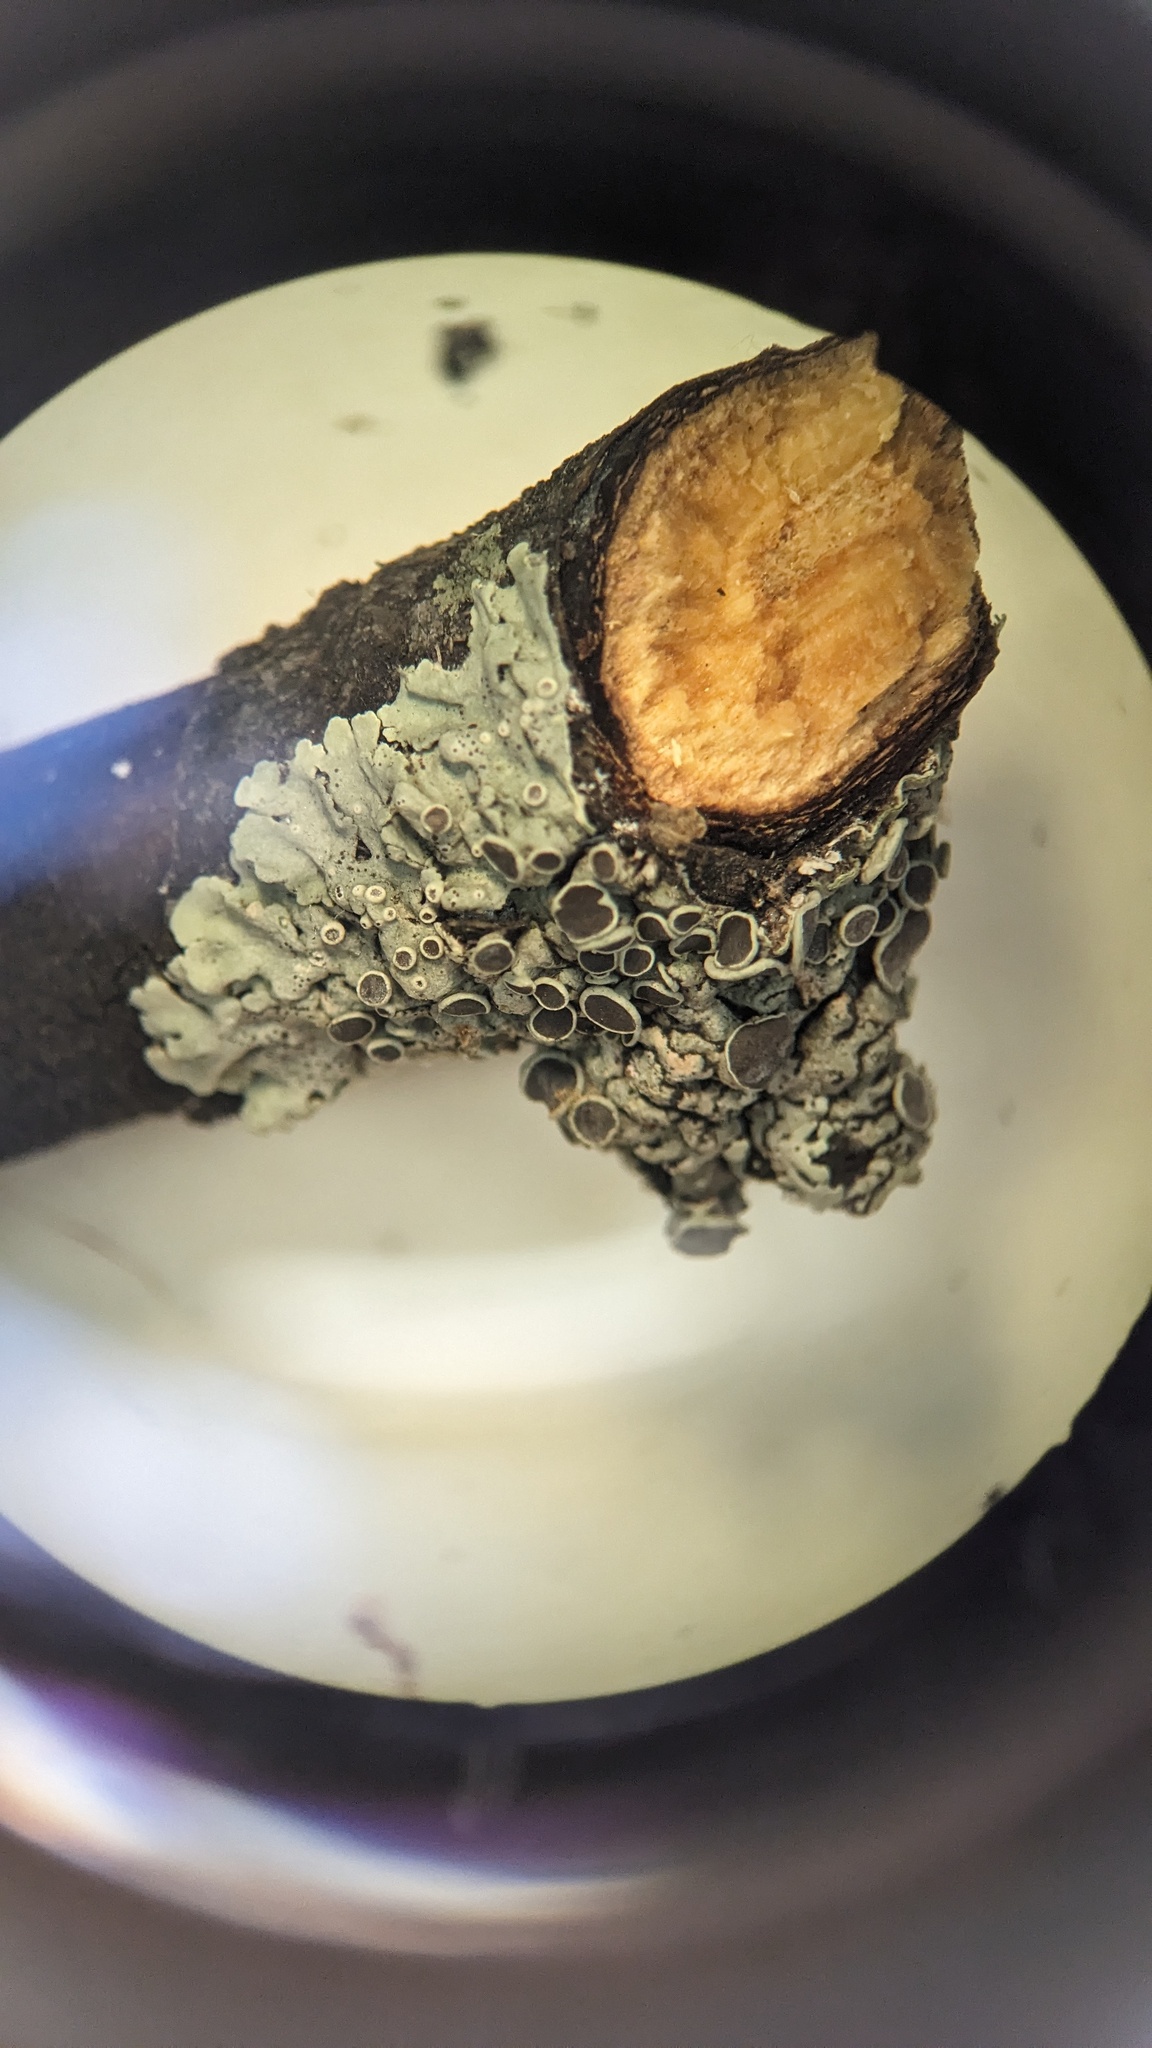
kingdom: Fungi
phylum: Ascomycota
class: Lecanoromycetes
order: Caliciales
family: Physciaceae
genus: Physcia
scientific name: Physcia
